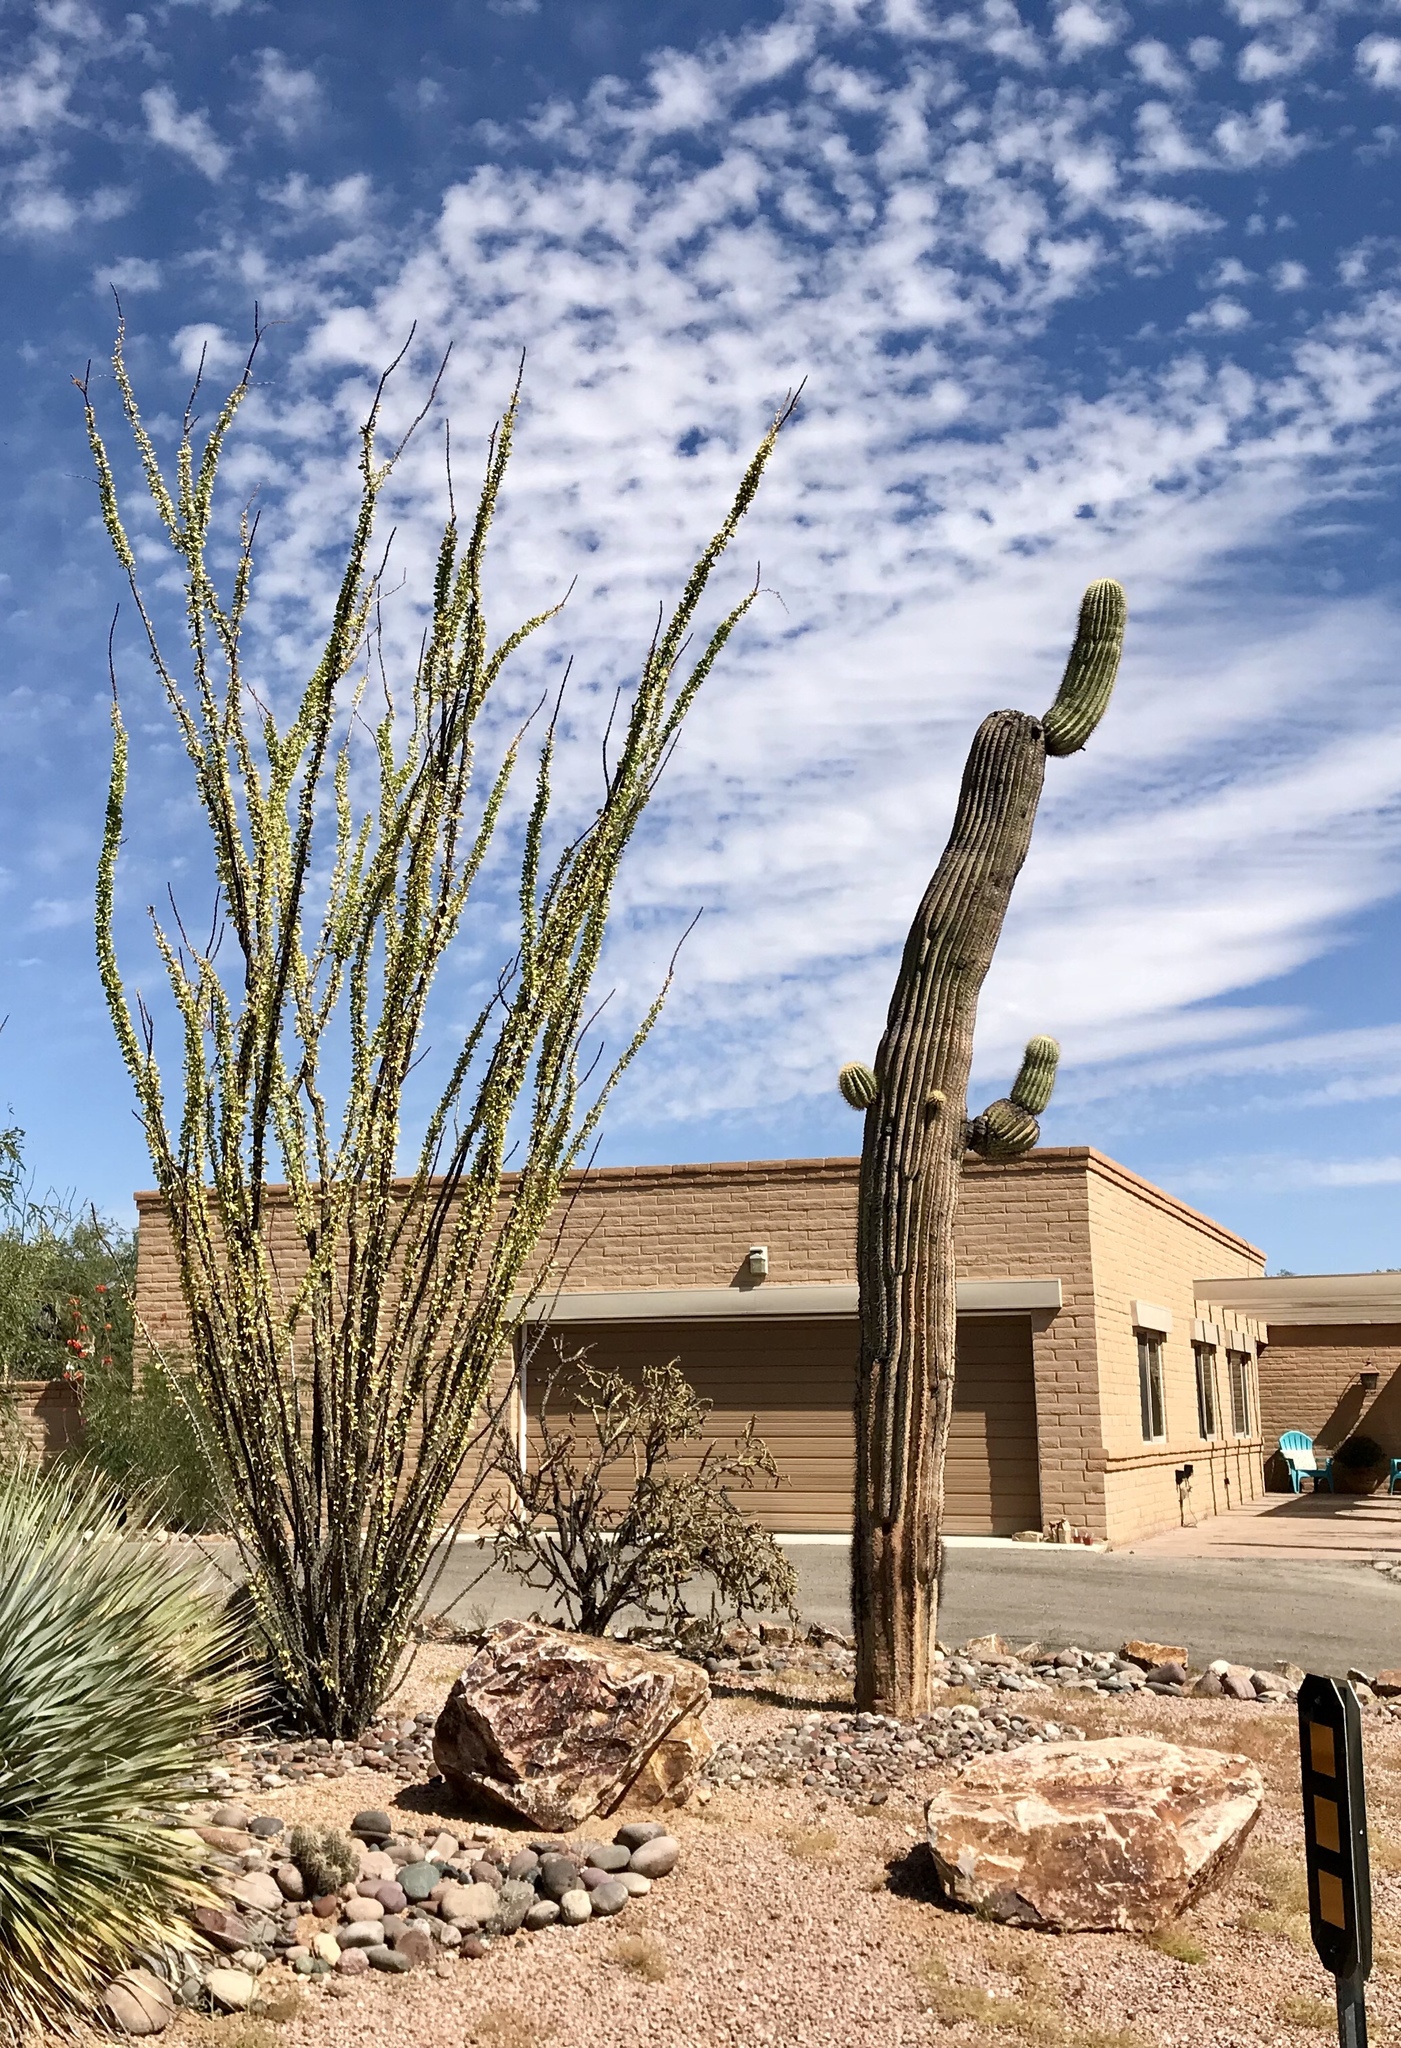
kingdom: Plantae
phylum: Tracheophyta
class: Magnoliopsida
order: Caryophyllales
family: Cactaceae
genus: Carnegiea
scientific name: Carnegiea gigantea
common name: Saguaro
